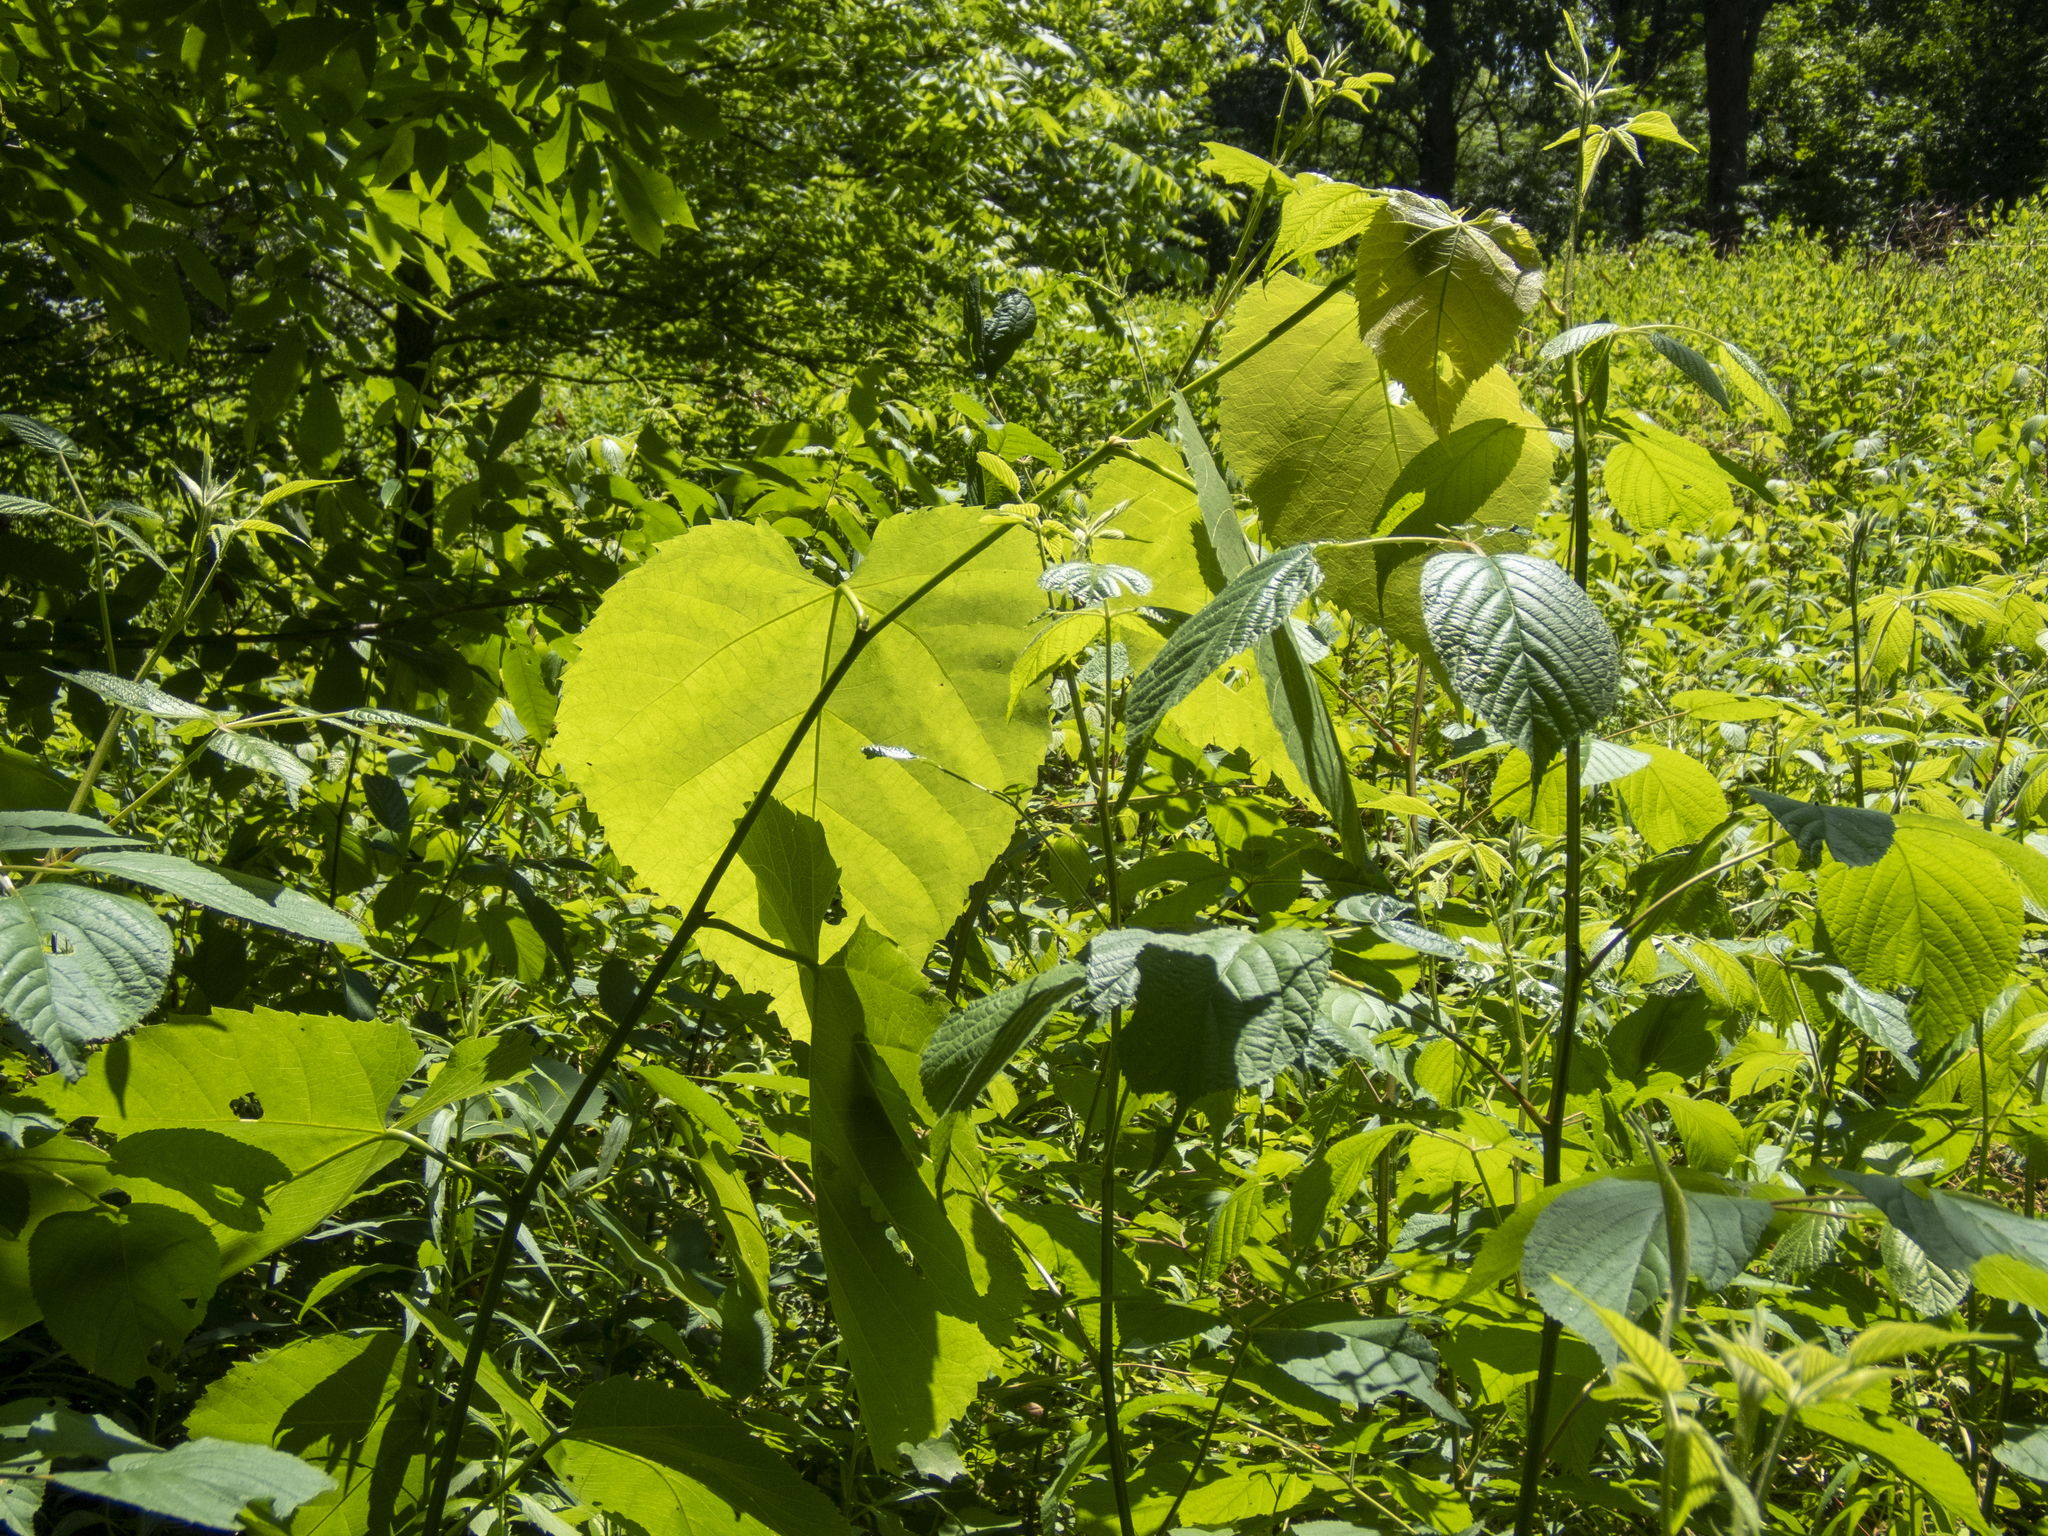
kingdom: Plantae
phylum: Tracheophyta
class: Magnoliopsida
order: Malvales
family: Malvaceae
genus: Tilia
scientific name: Tilia americana
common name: Basswood
